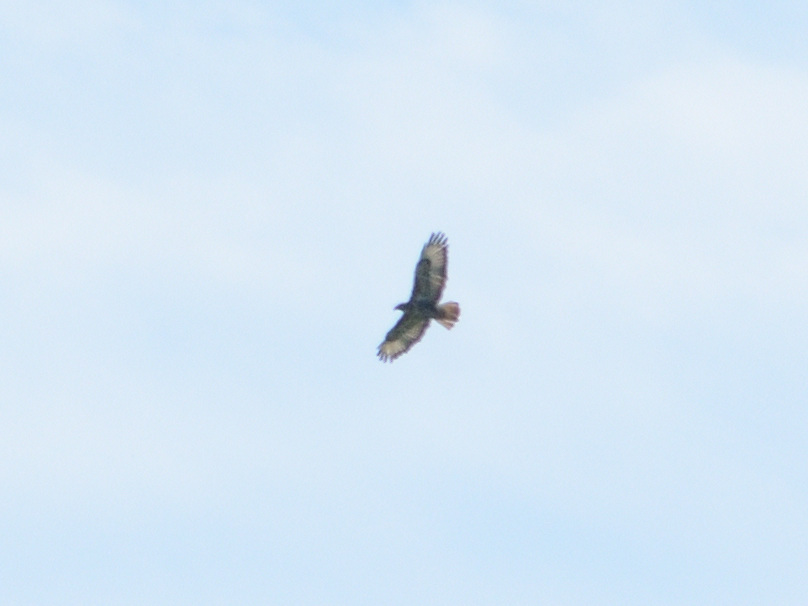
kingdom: Animalia
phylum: Chordata
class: Aves
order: Accipitriformes
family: Accipitridae
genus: Buteo
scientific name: Buteo buteo
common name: Common buzzard
